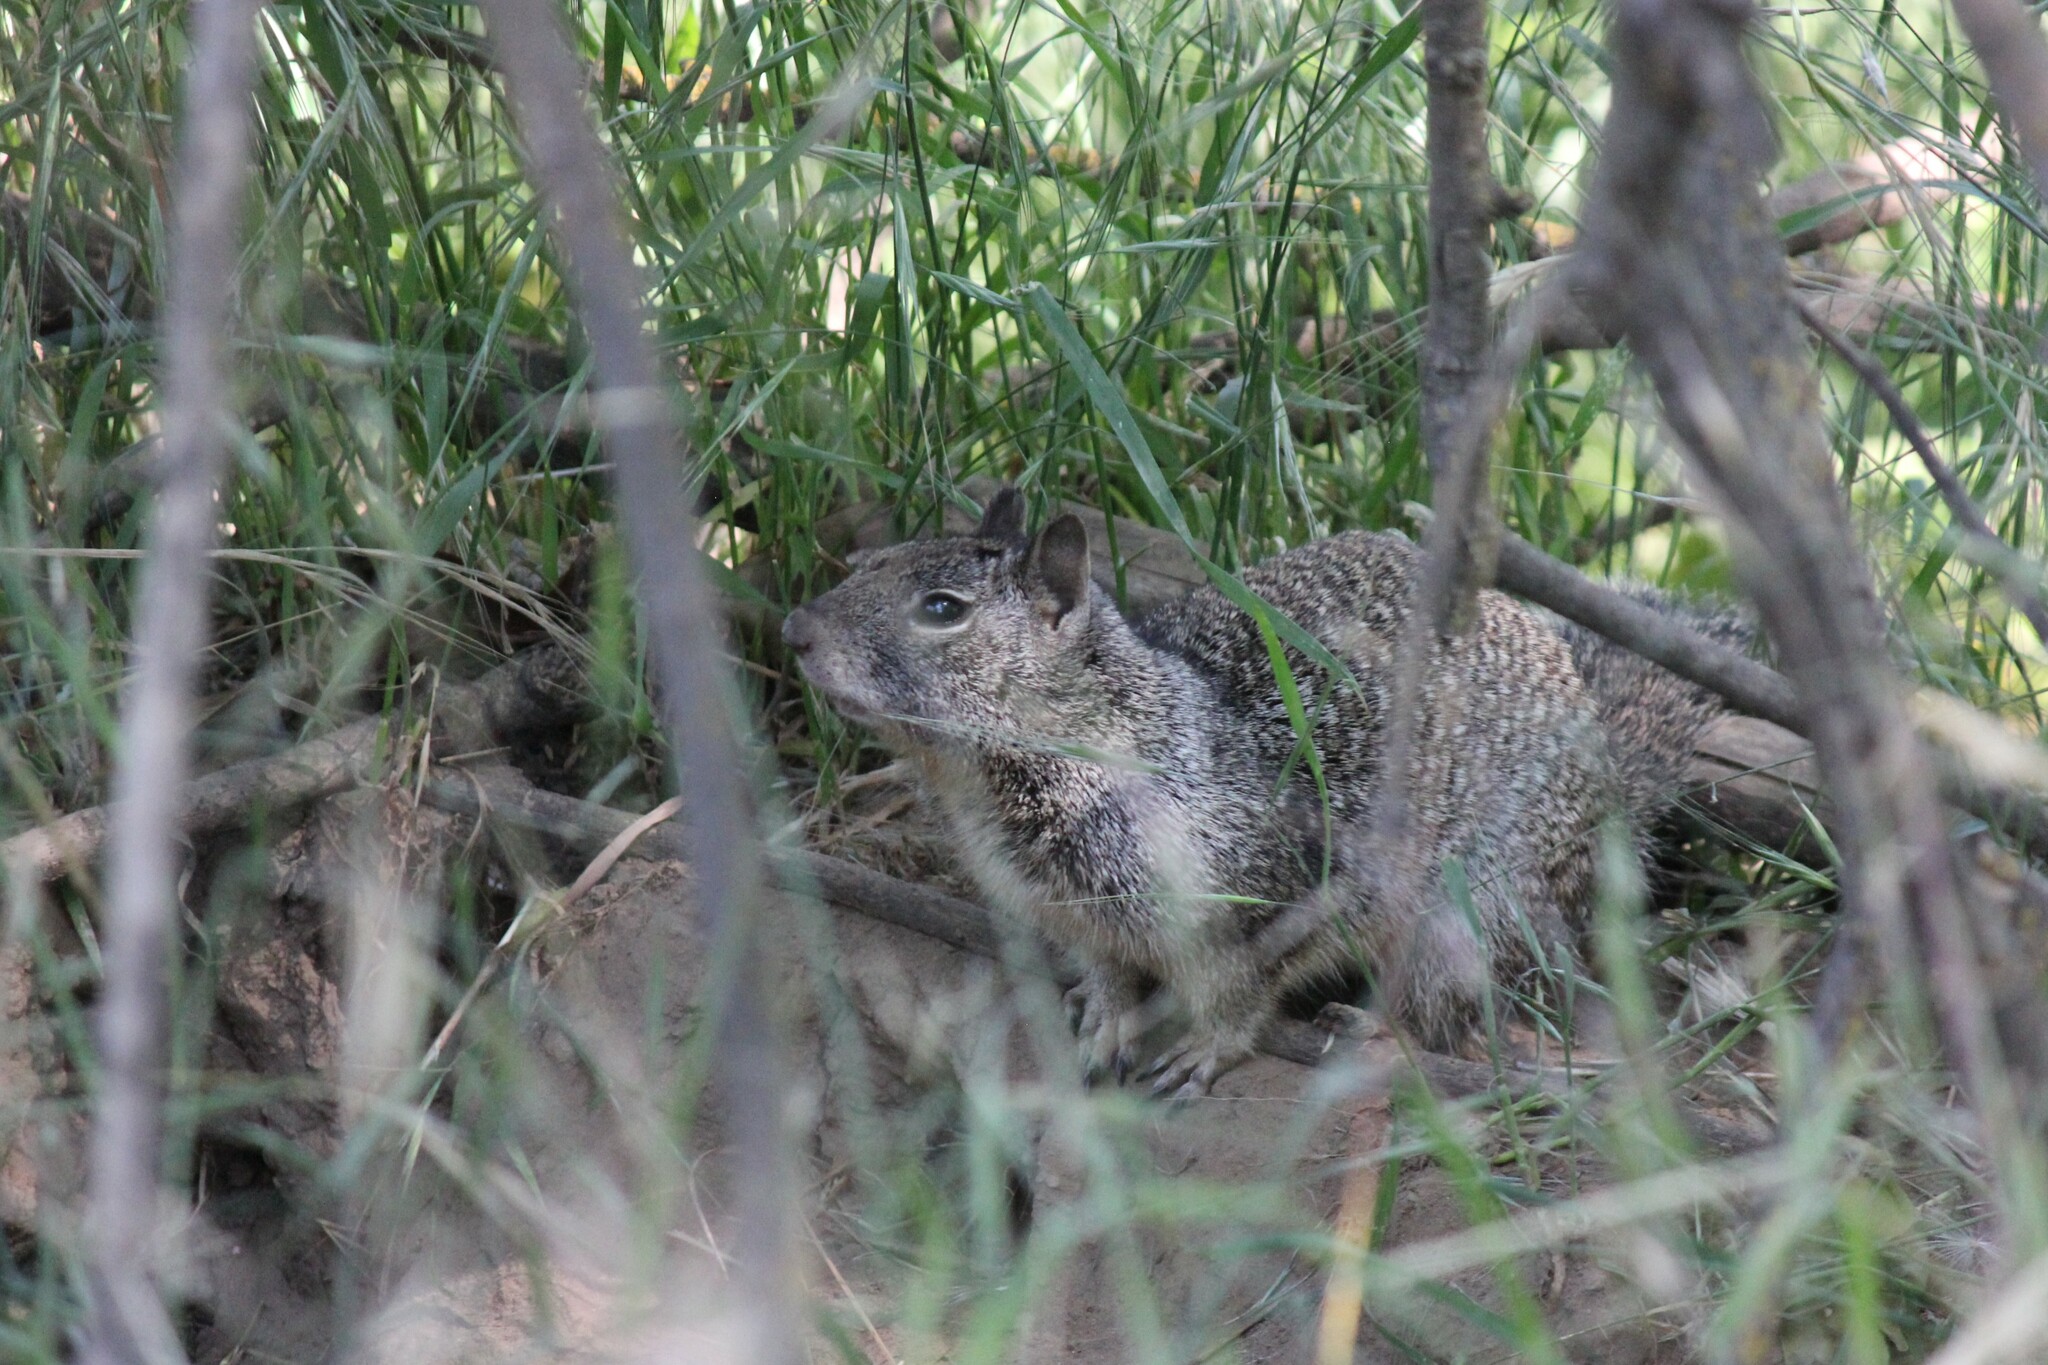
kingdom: Animalia
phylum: Chordata
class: Mammalia
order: Rodentia
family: Sciuridae
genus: Otospermophilus
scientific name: Otospermophilus beecheyi
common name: California ground squirrel
